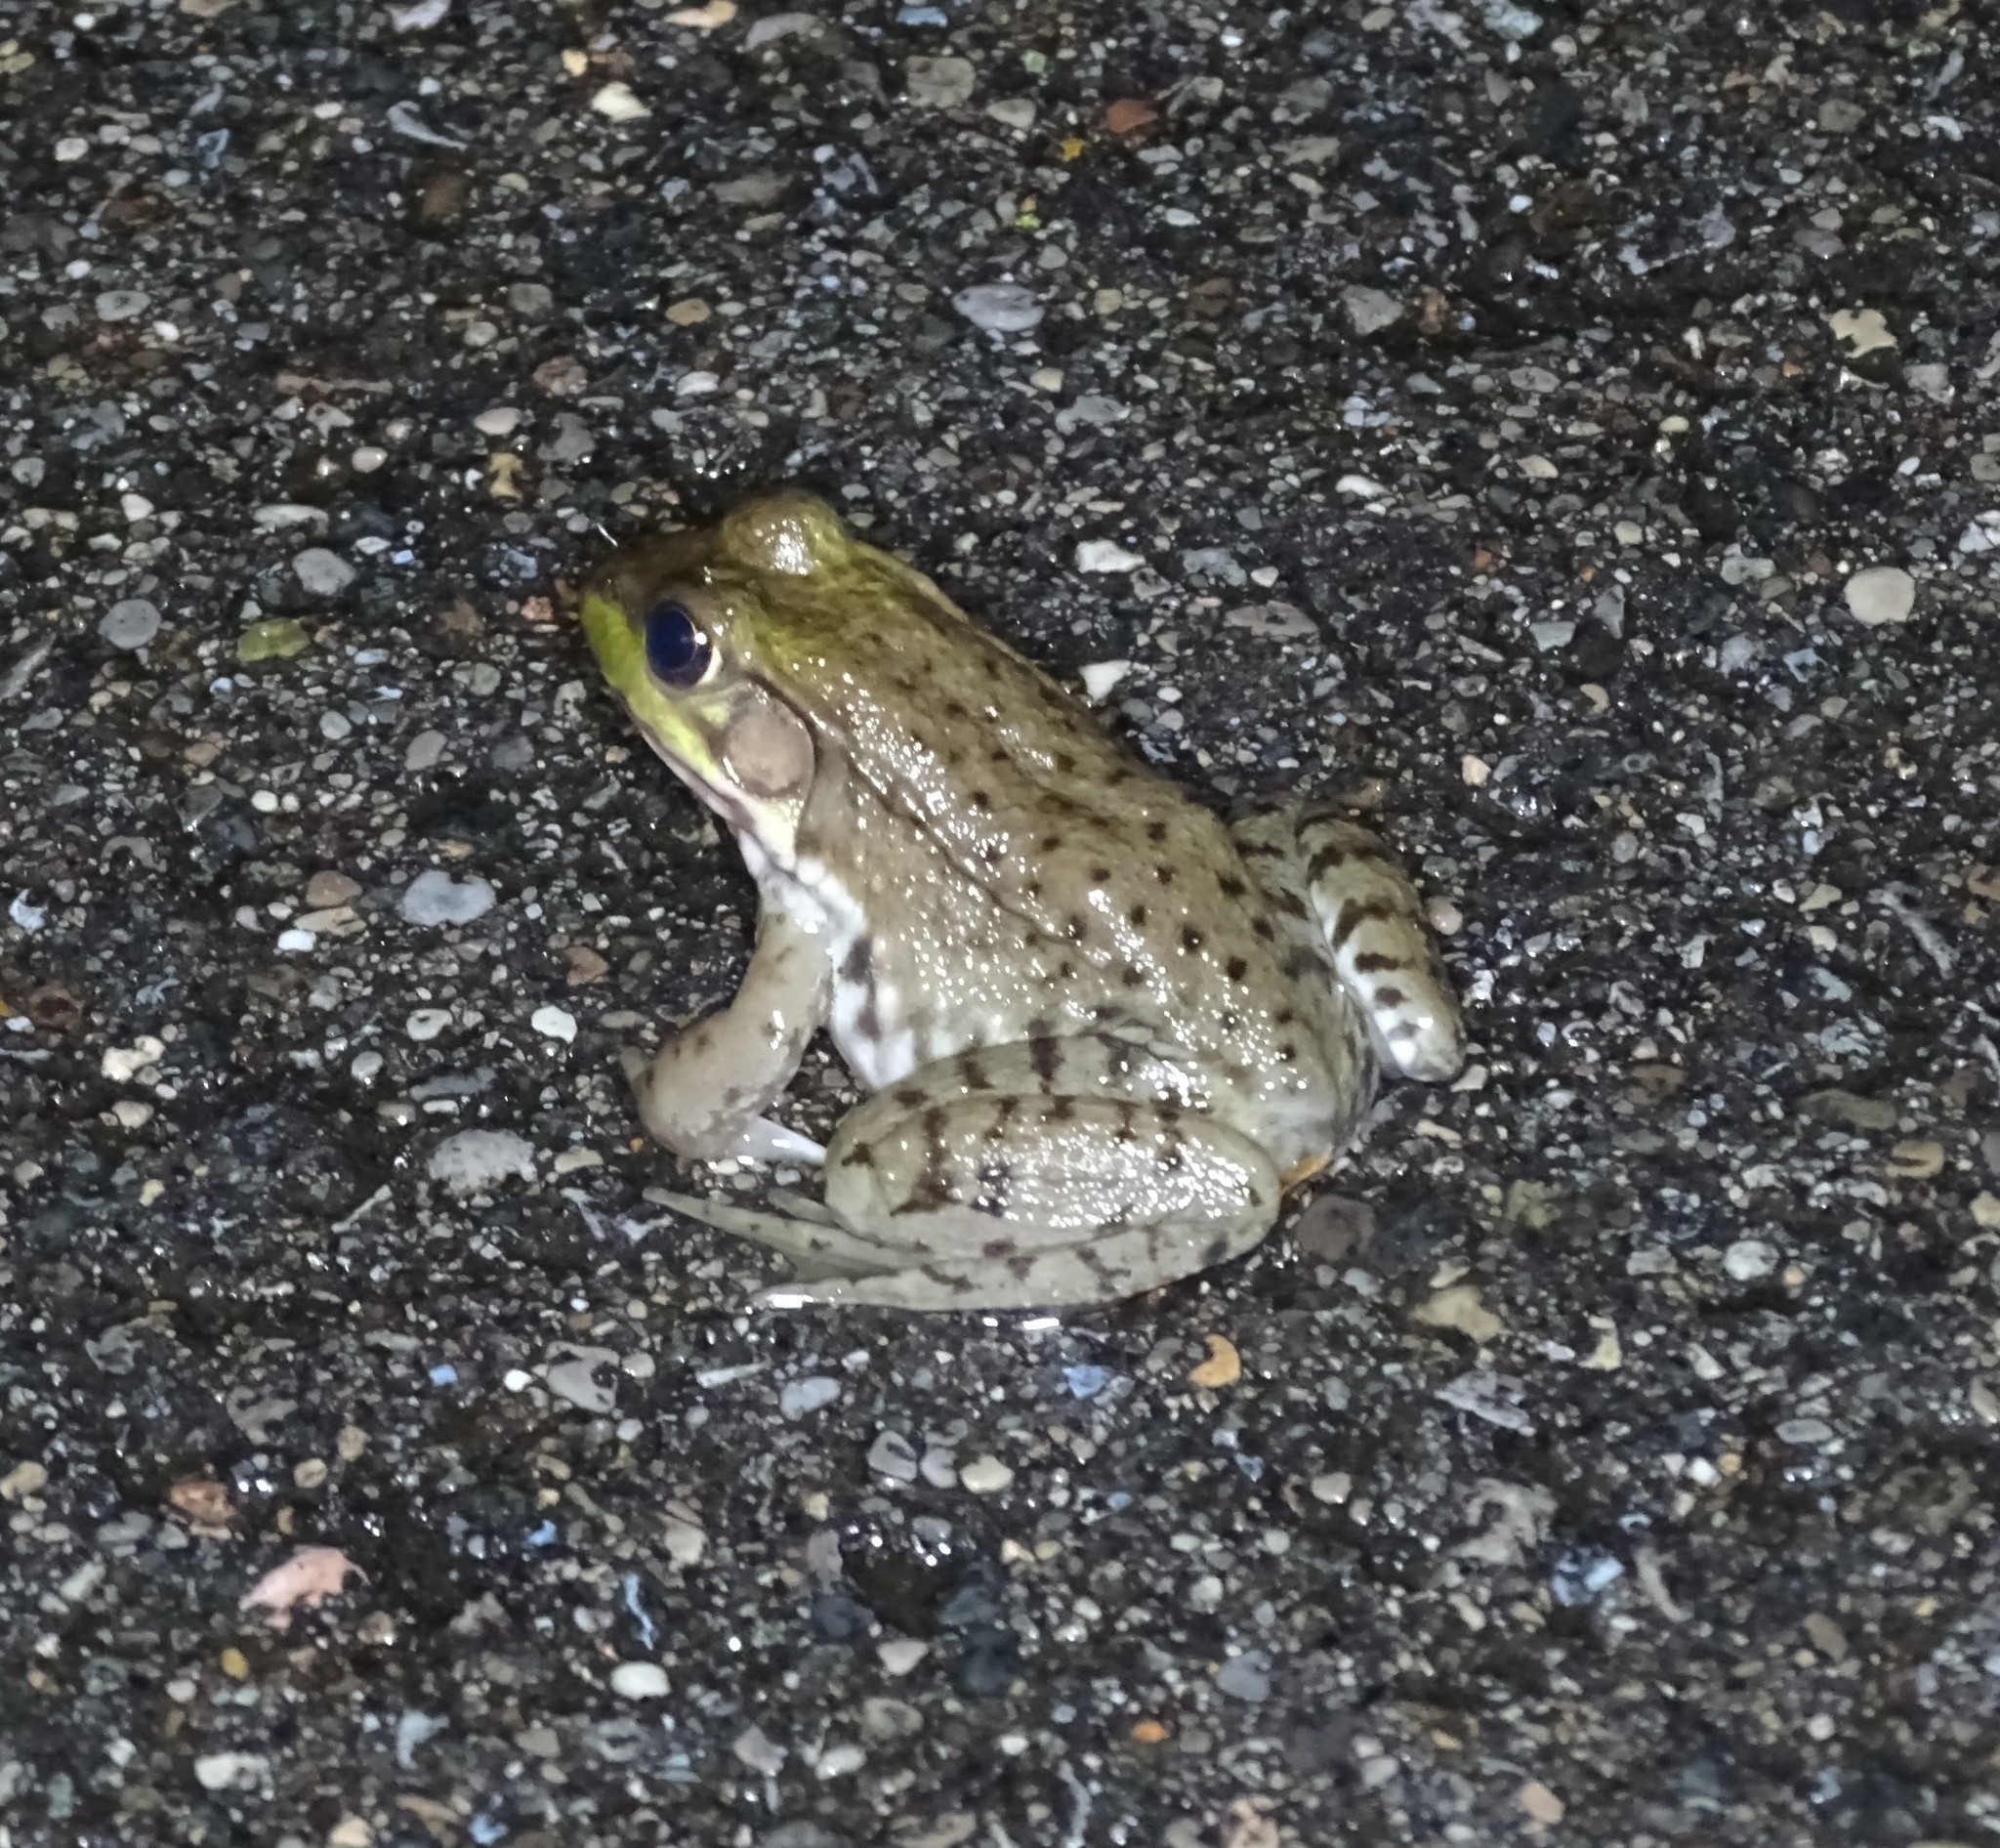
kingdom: Animalia
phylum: Chordata
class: Amphibia
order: Anura
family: Ranidae
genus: Lithobates
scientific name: Lithobates clamitans
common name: Green frog
